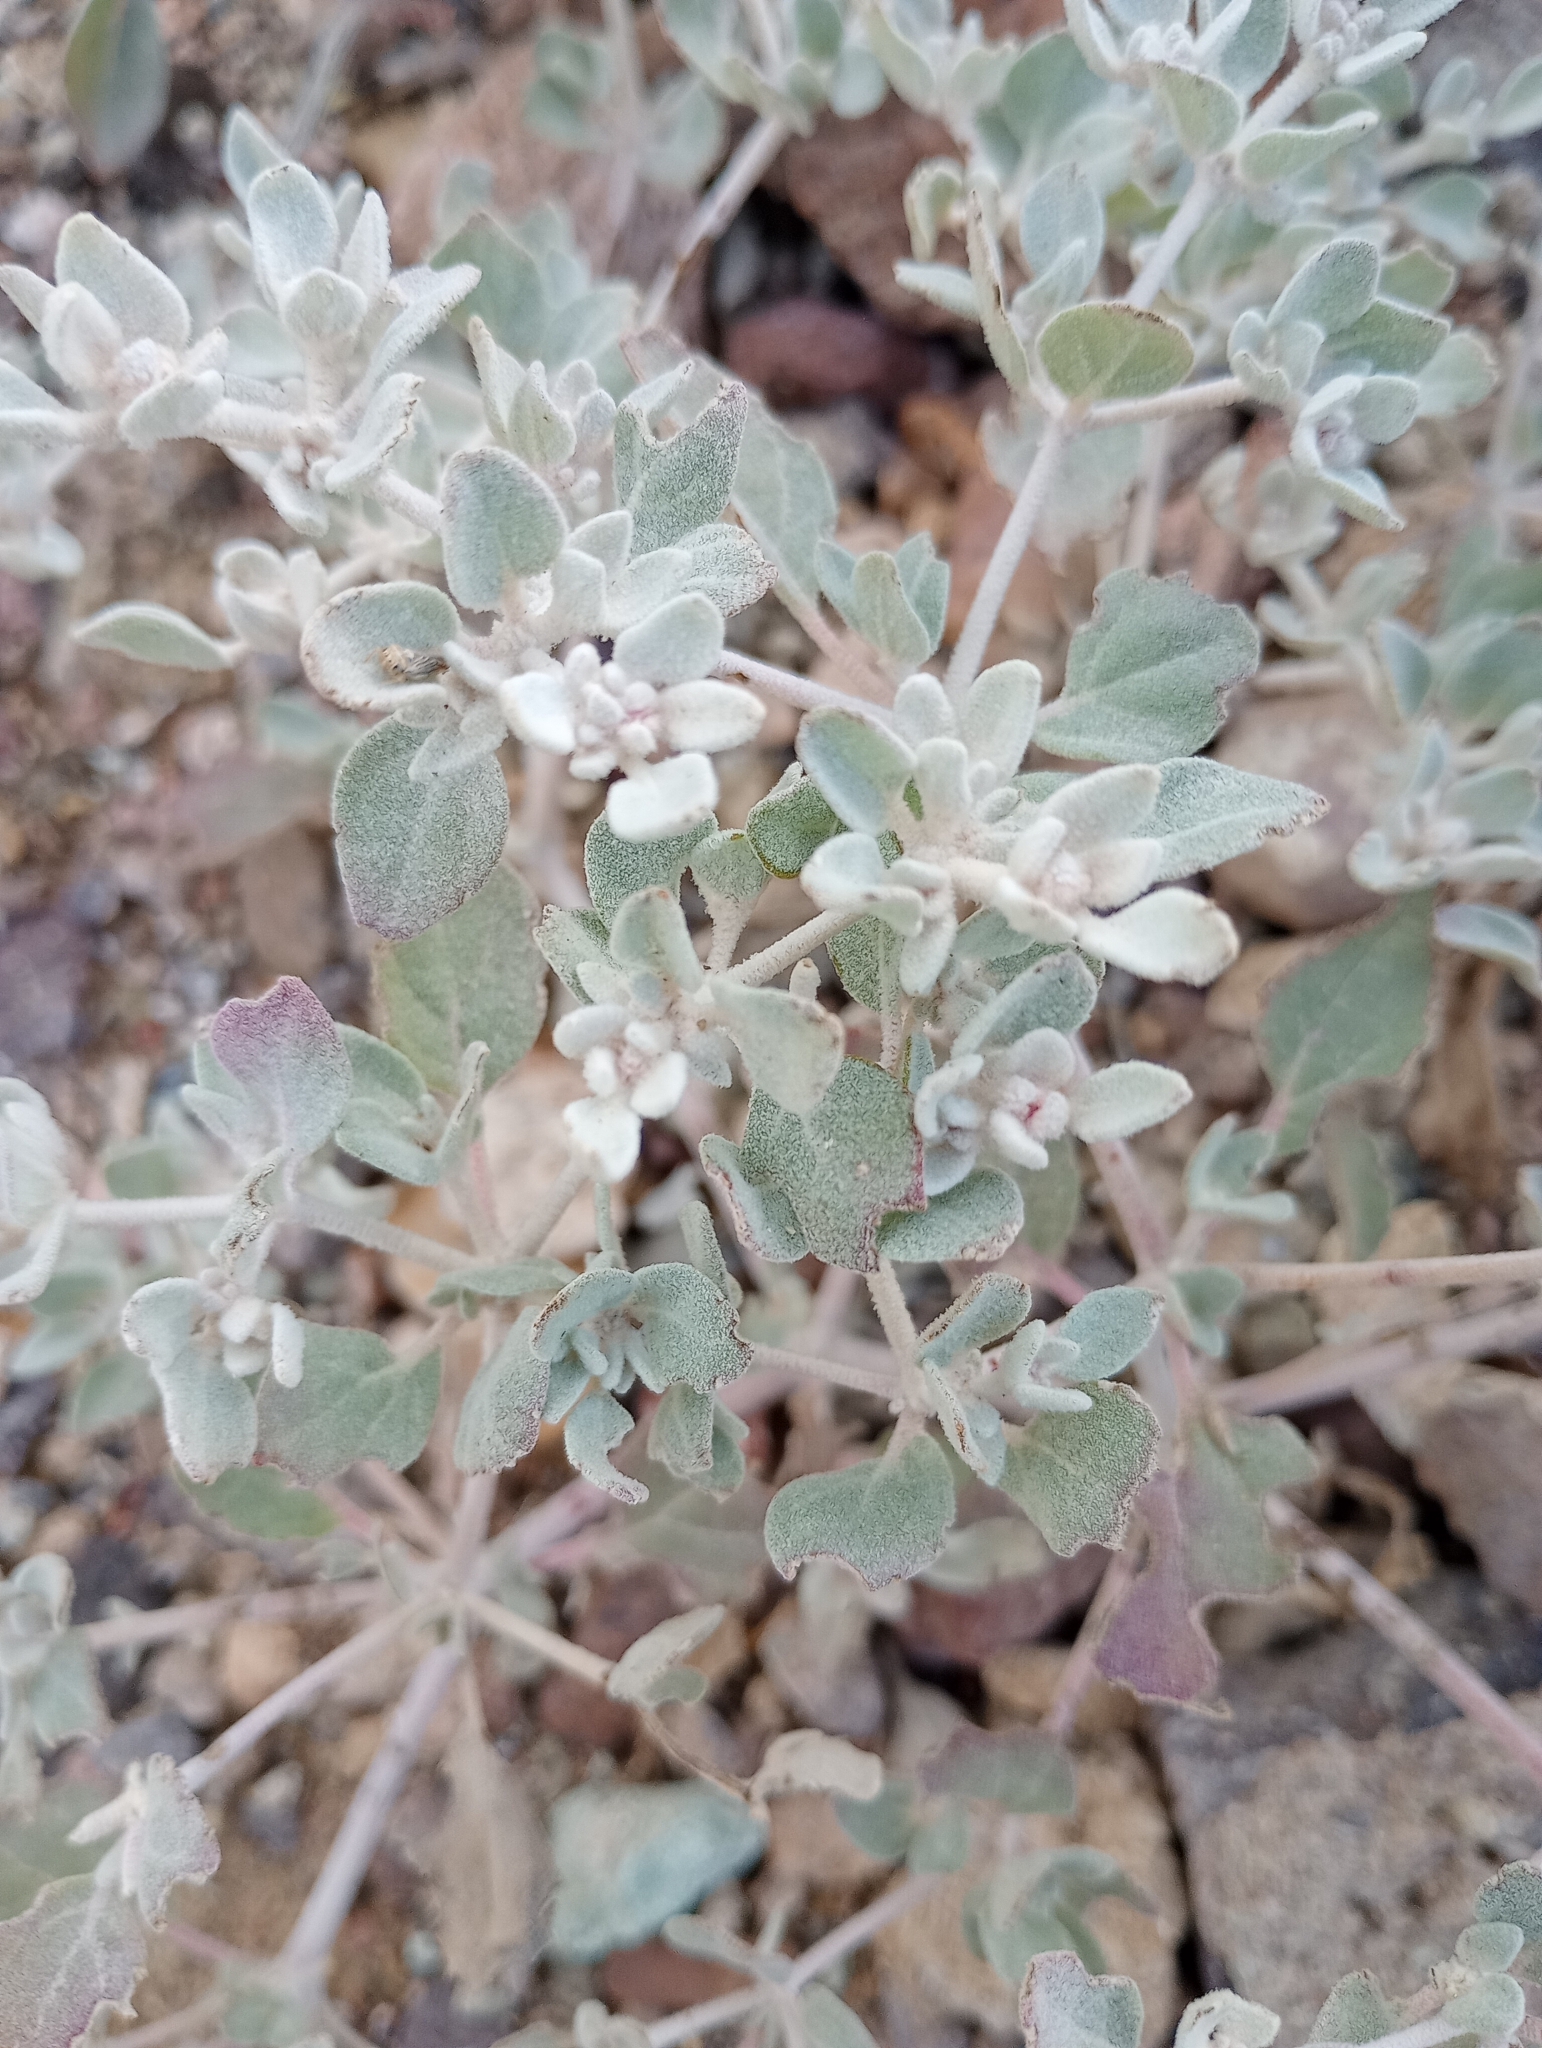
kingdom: Plantae
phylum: Tracheophyta
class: Magnoliopsida
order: Caryophyllales
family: Amaranthaceae
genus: Tidestromia
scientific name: Tidestromia suffruticosa
